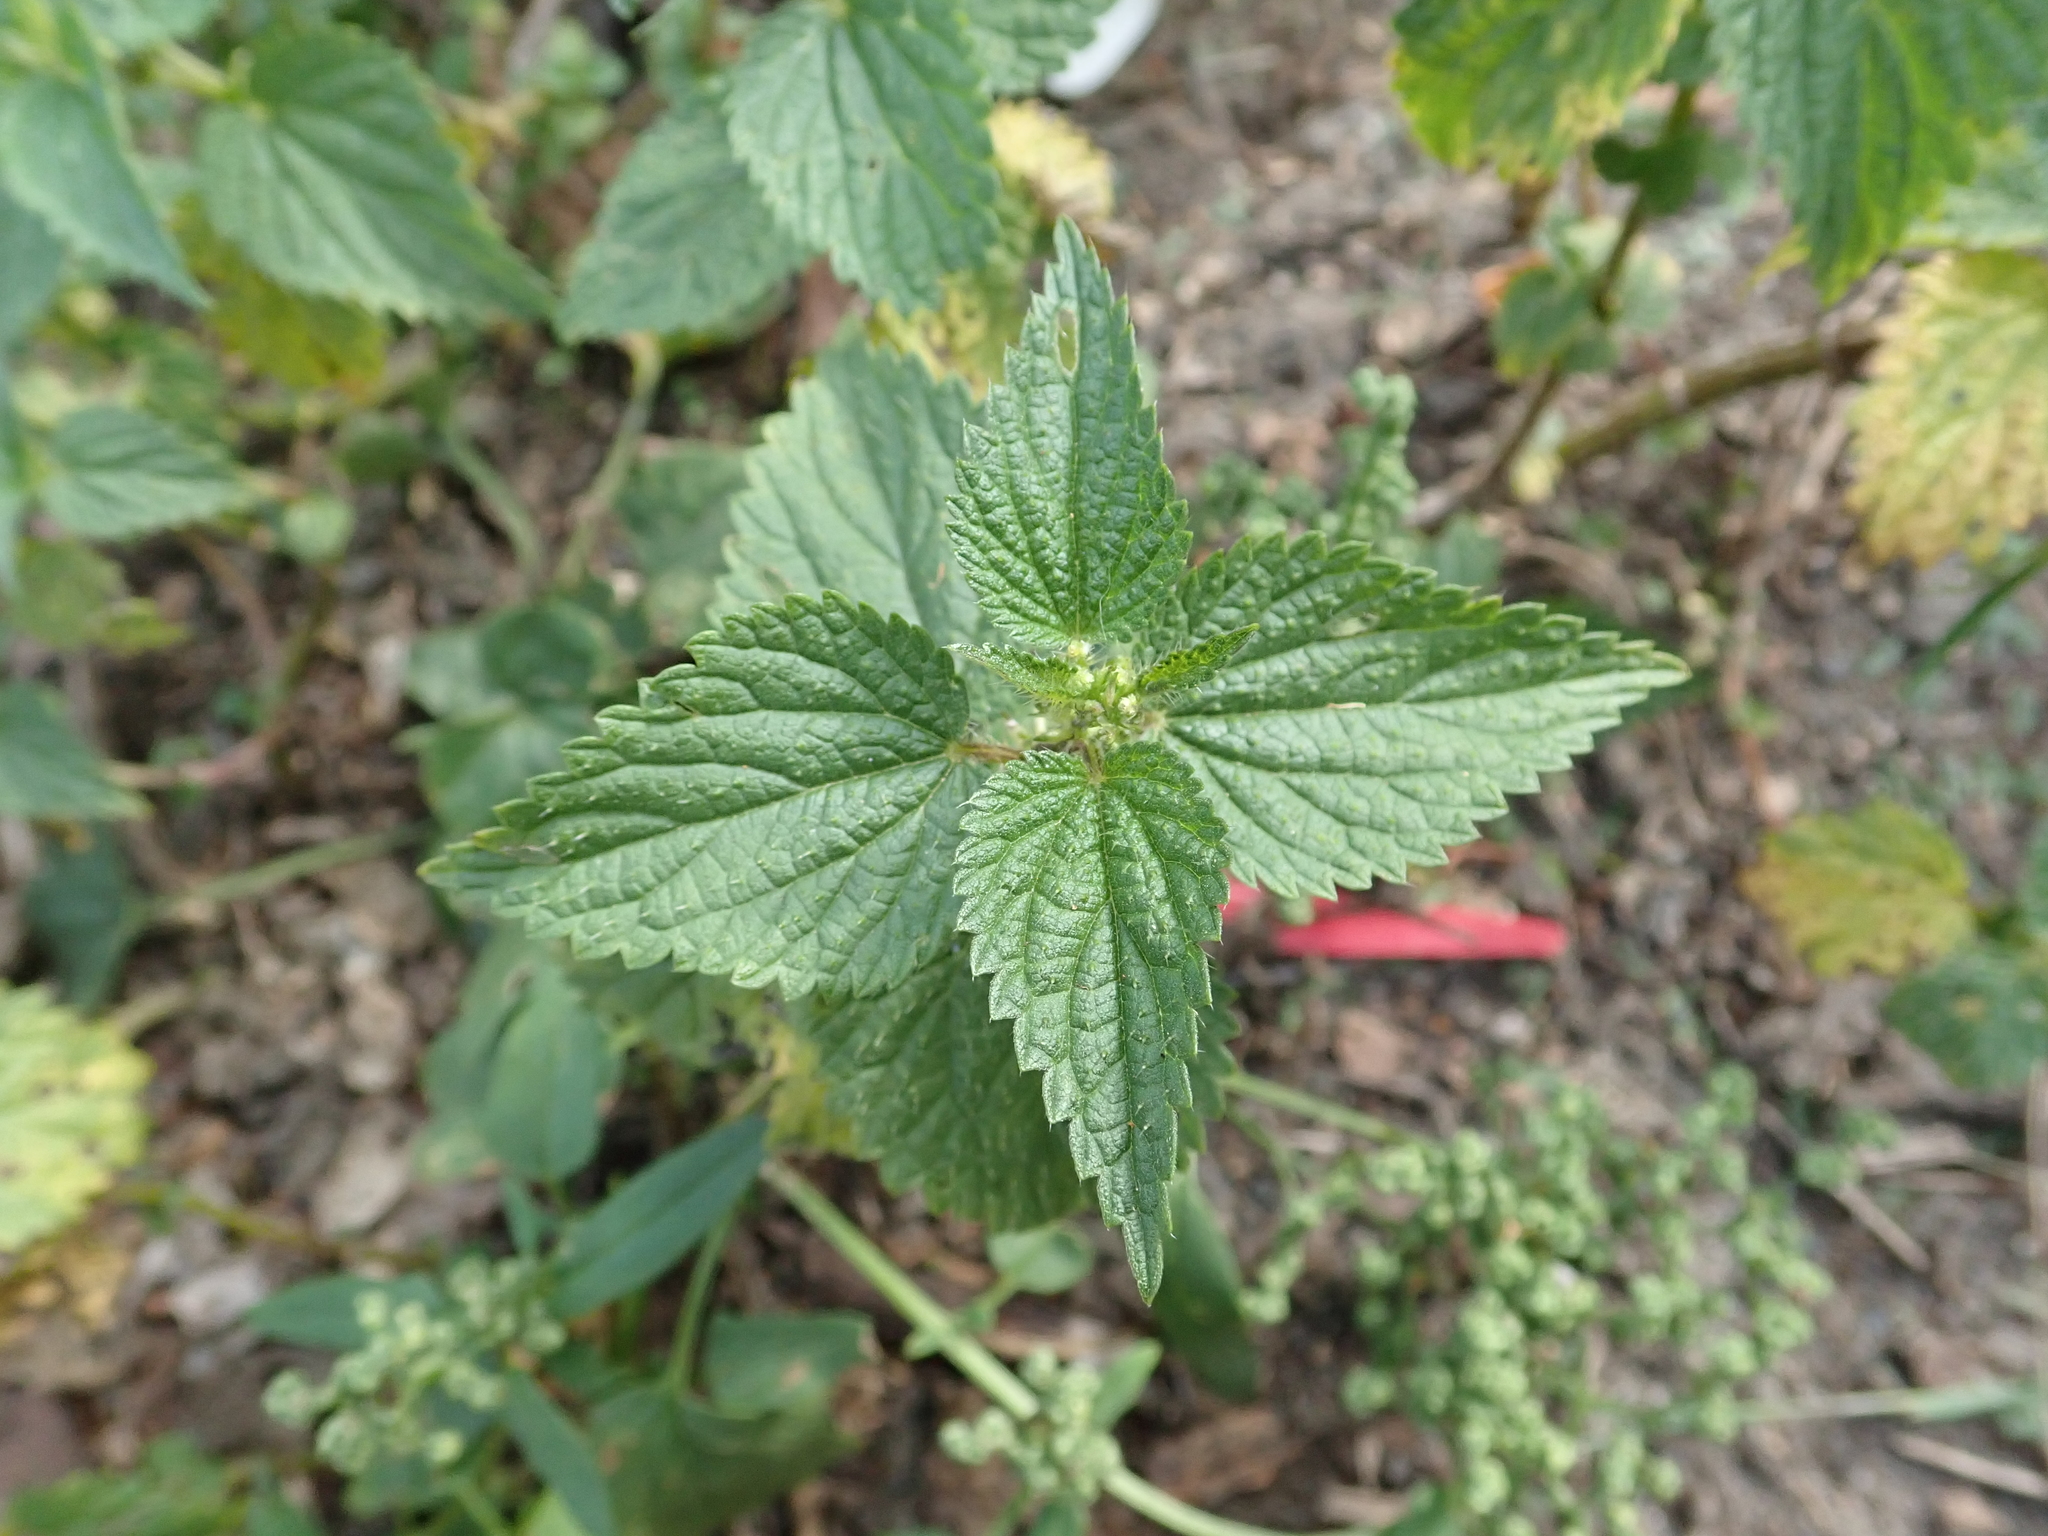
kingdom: Plantae
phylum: Tracheophyta
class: Magnoliopsida
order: Rosales
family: Urticaceae
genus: Urtica
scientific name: Urtica dioica
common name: Common nettle
